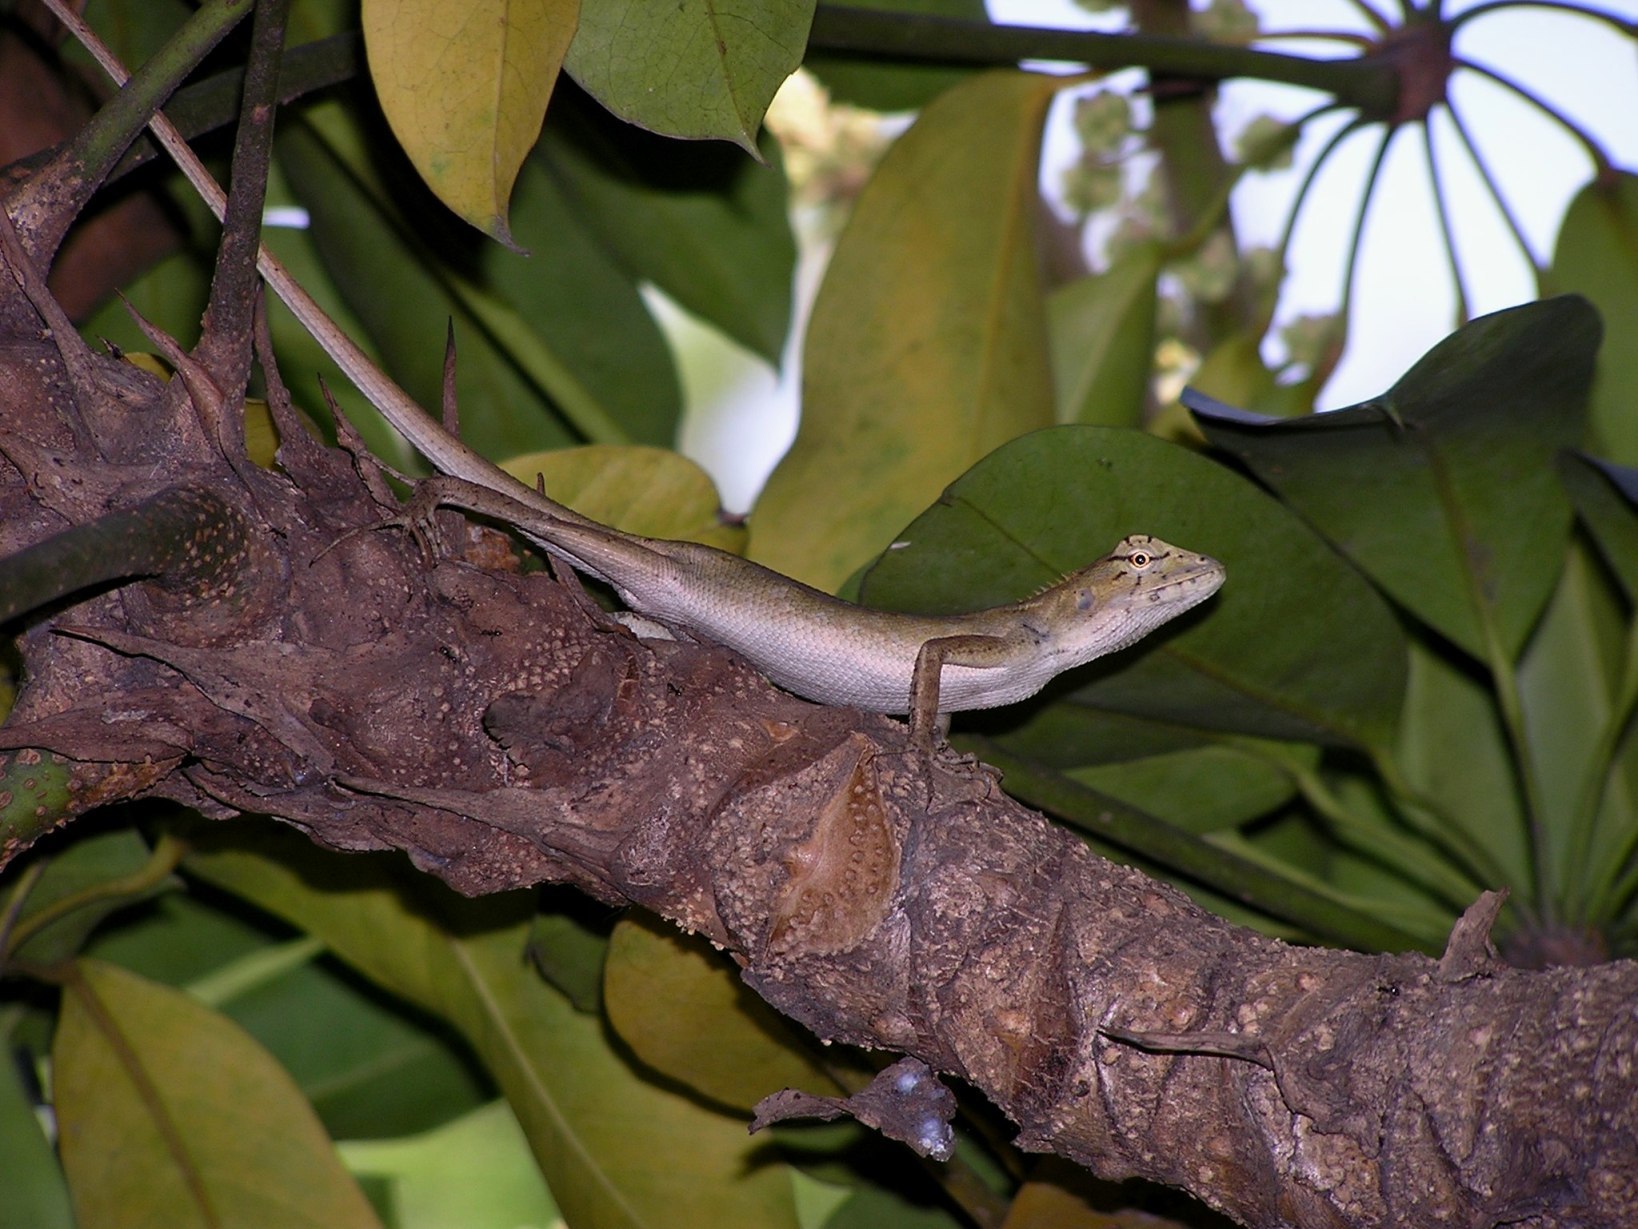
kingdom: Animalia
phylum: Chordata
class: Squamata
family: Agamidae
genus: Calotes
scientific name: Calotes versicolor
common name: Oriental garden lizard
